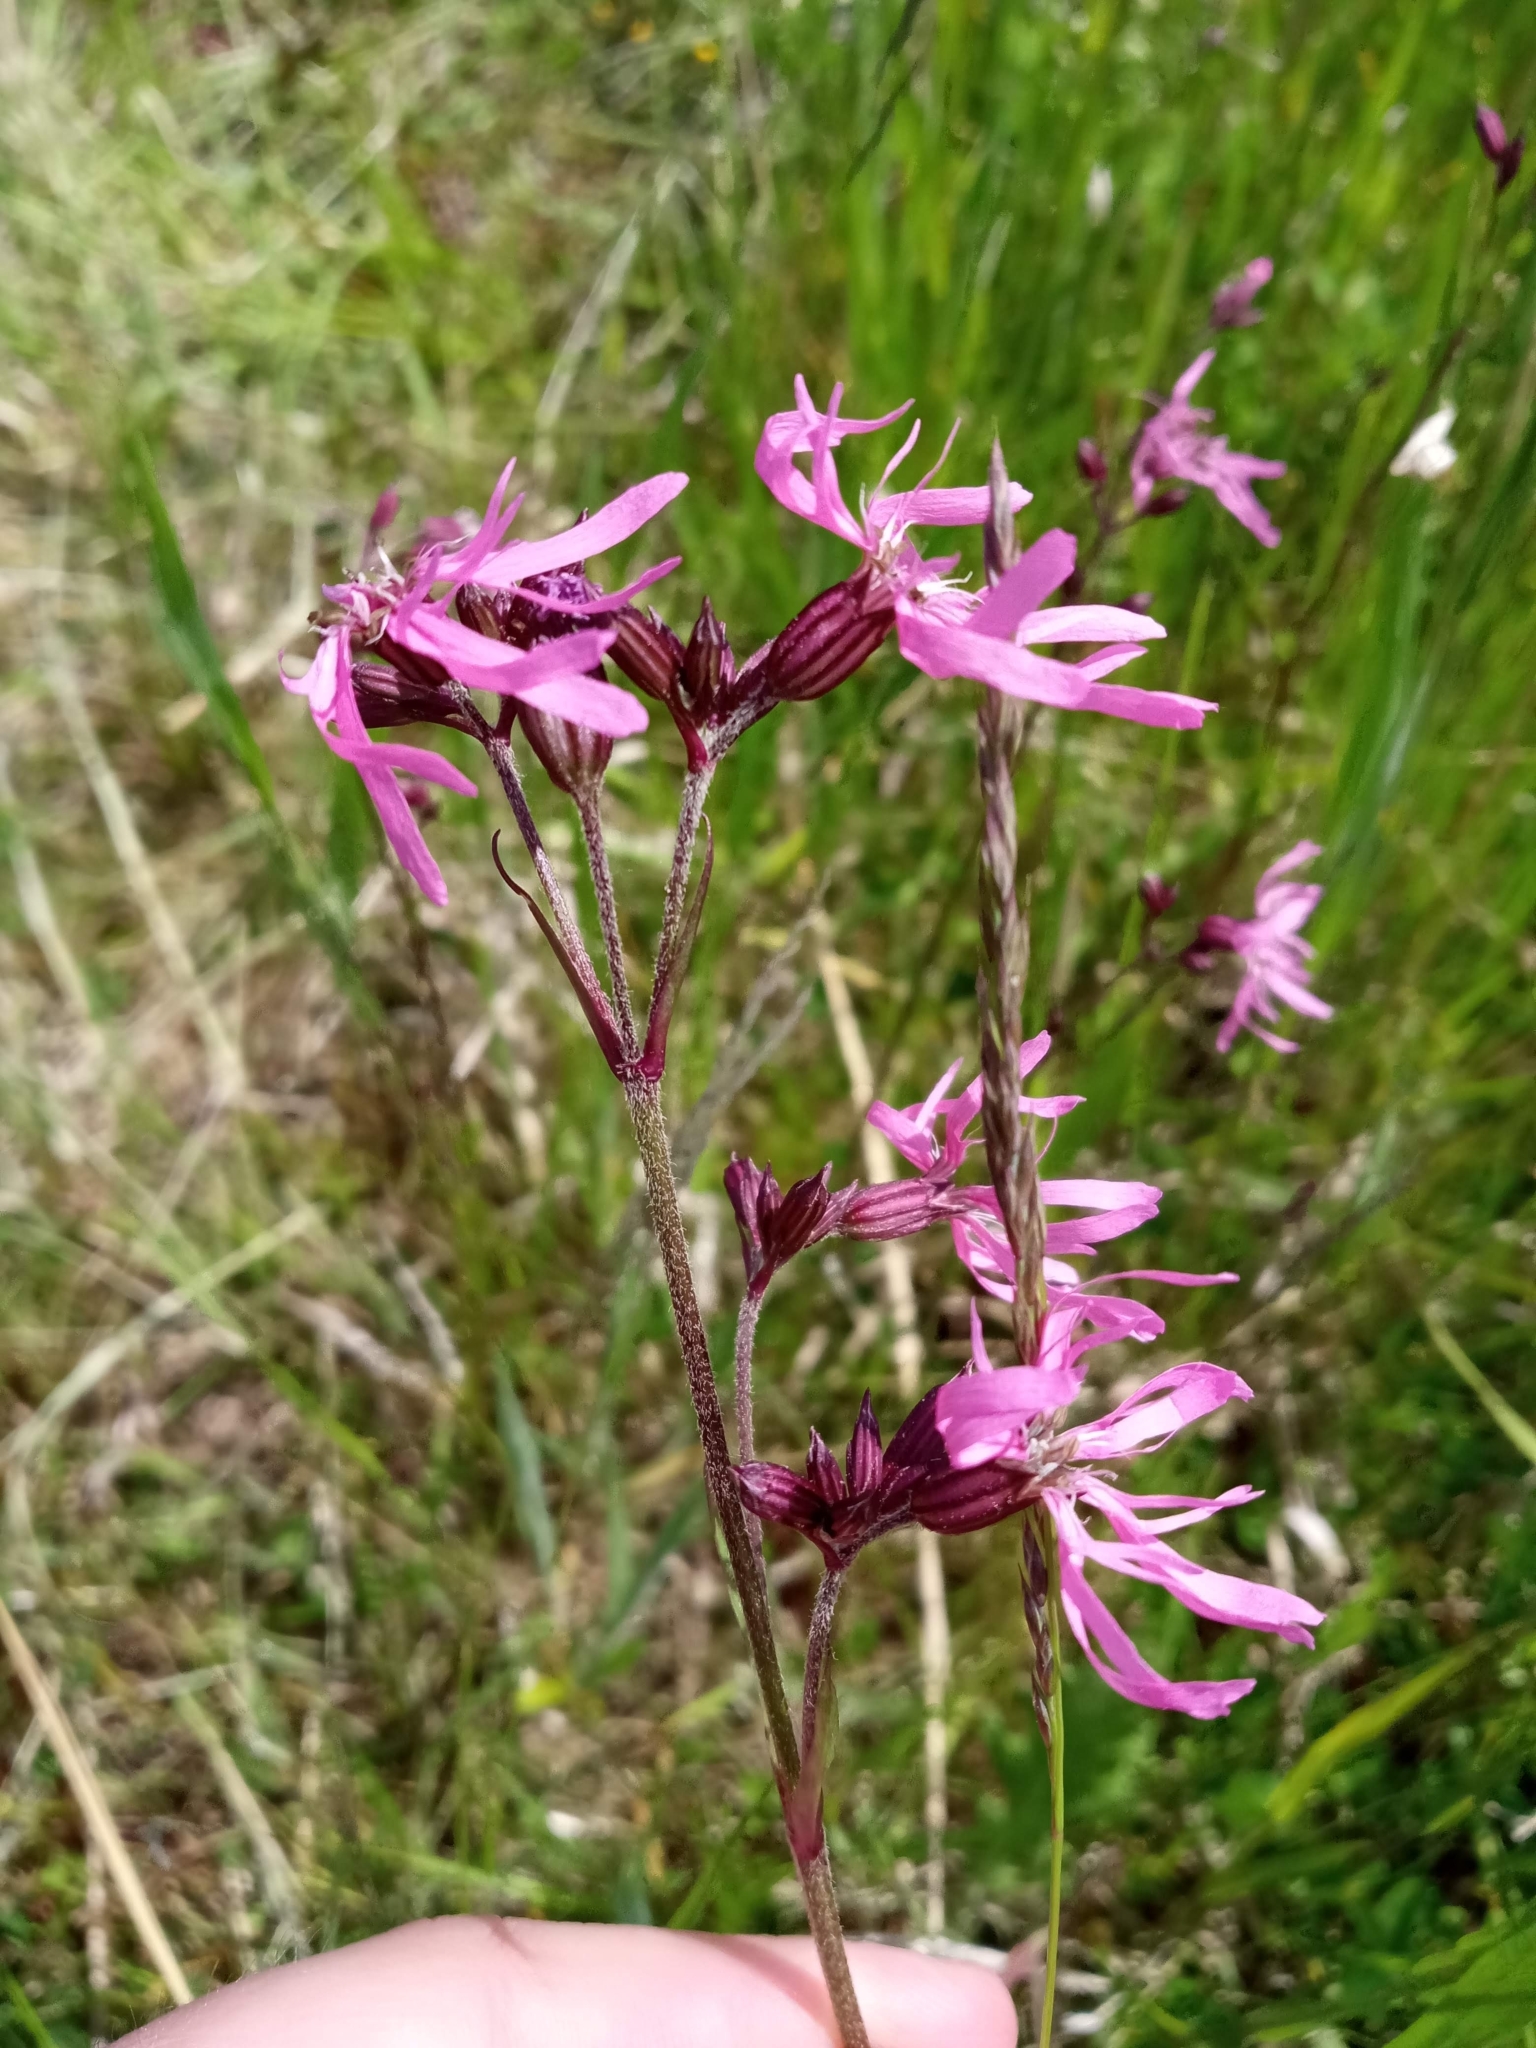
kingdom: Plantae
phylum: Tracheophyta
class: Magnoliopsida
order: Caryophyllales
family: Caryophyllaceae
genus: Silene
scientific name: Silene flos-cuculi
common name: Ragged-robin
